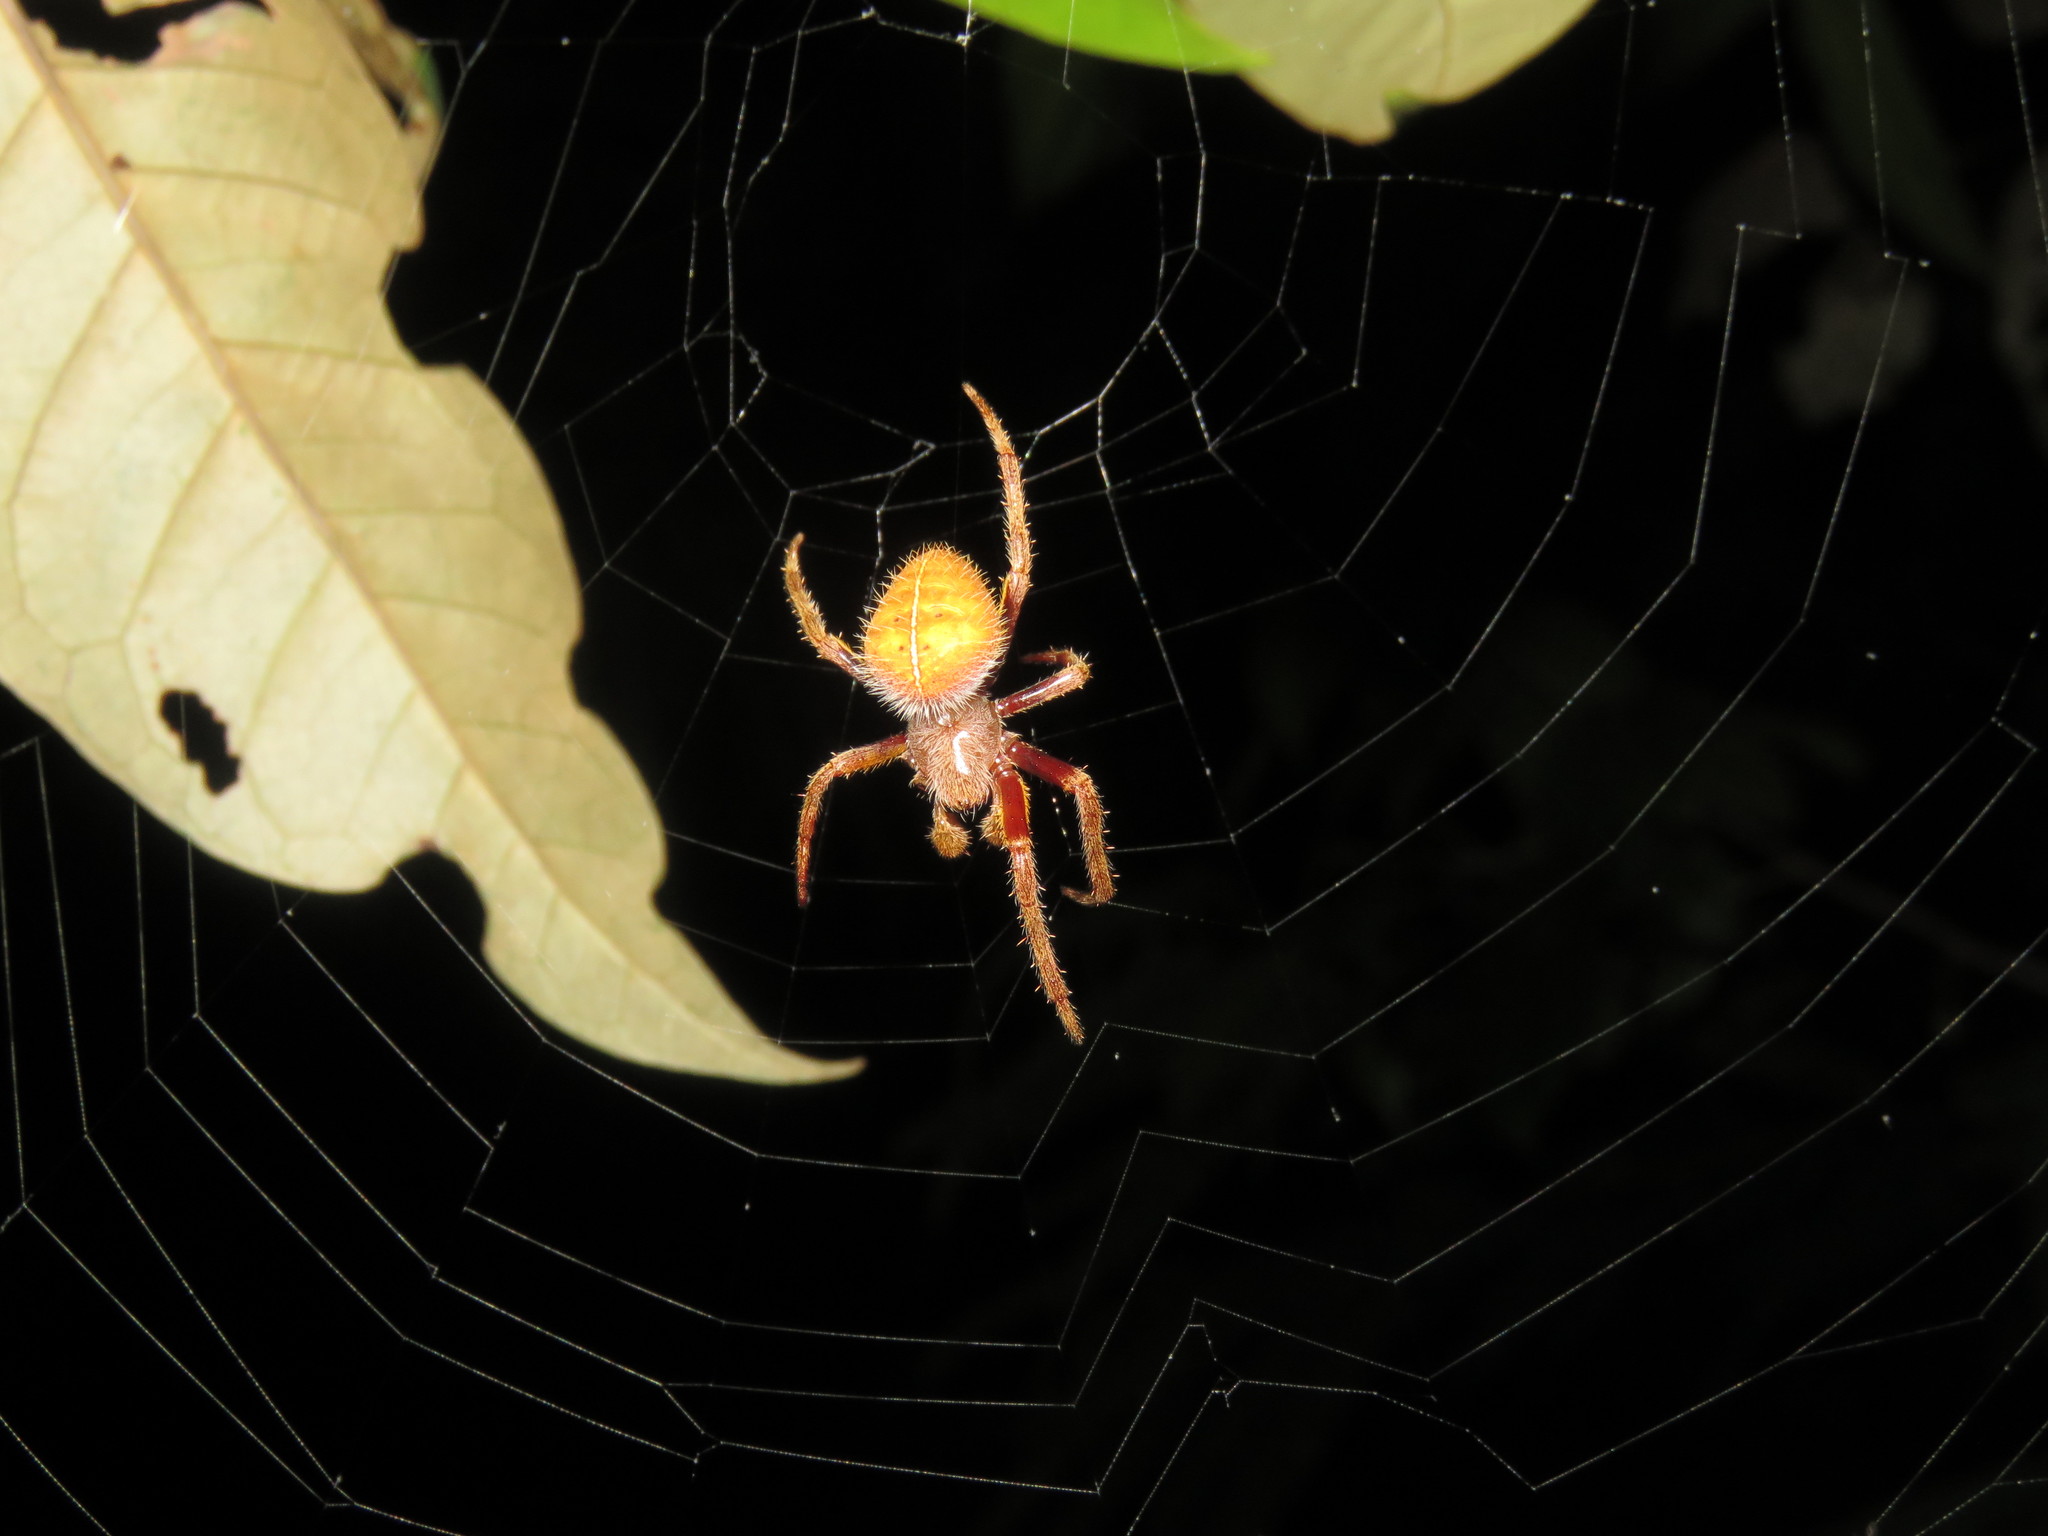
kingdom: Animalia
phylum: Arthropoda
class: Arachnida
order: Araneae
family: Araneidae
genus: Eriophora
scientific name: Eriophora fuliginea
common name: Orb weavers
